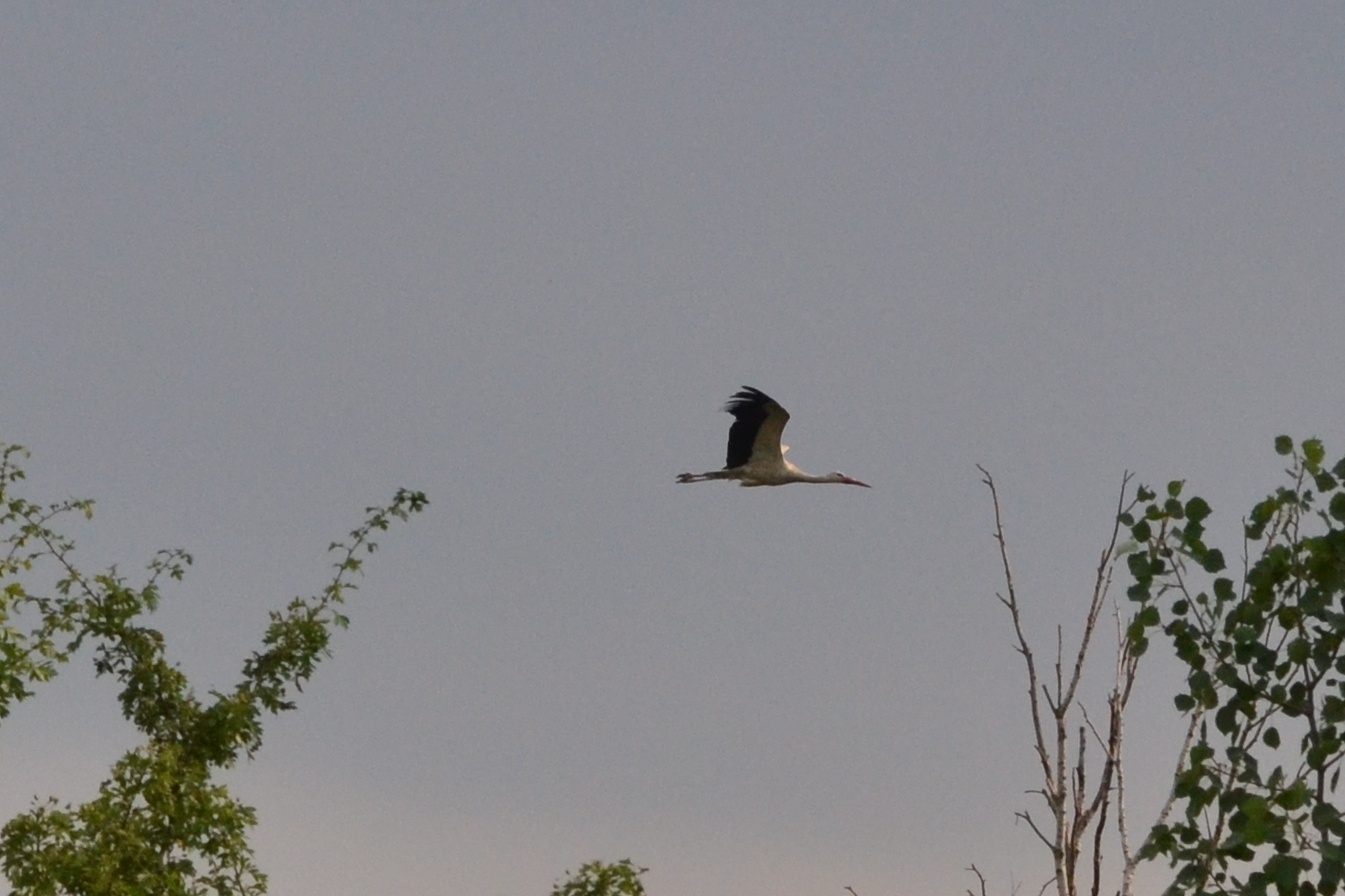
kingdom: Animalia
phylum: Chordata
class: Aves
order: Ciconiiformes
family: Ciconiidae
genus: Ciconia
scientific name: Ciconia ciconia
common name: White stork
